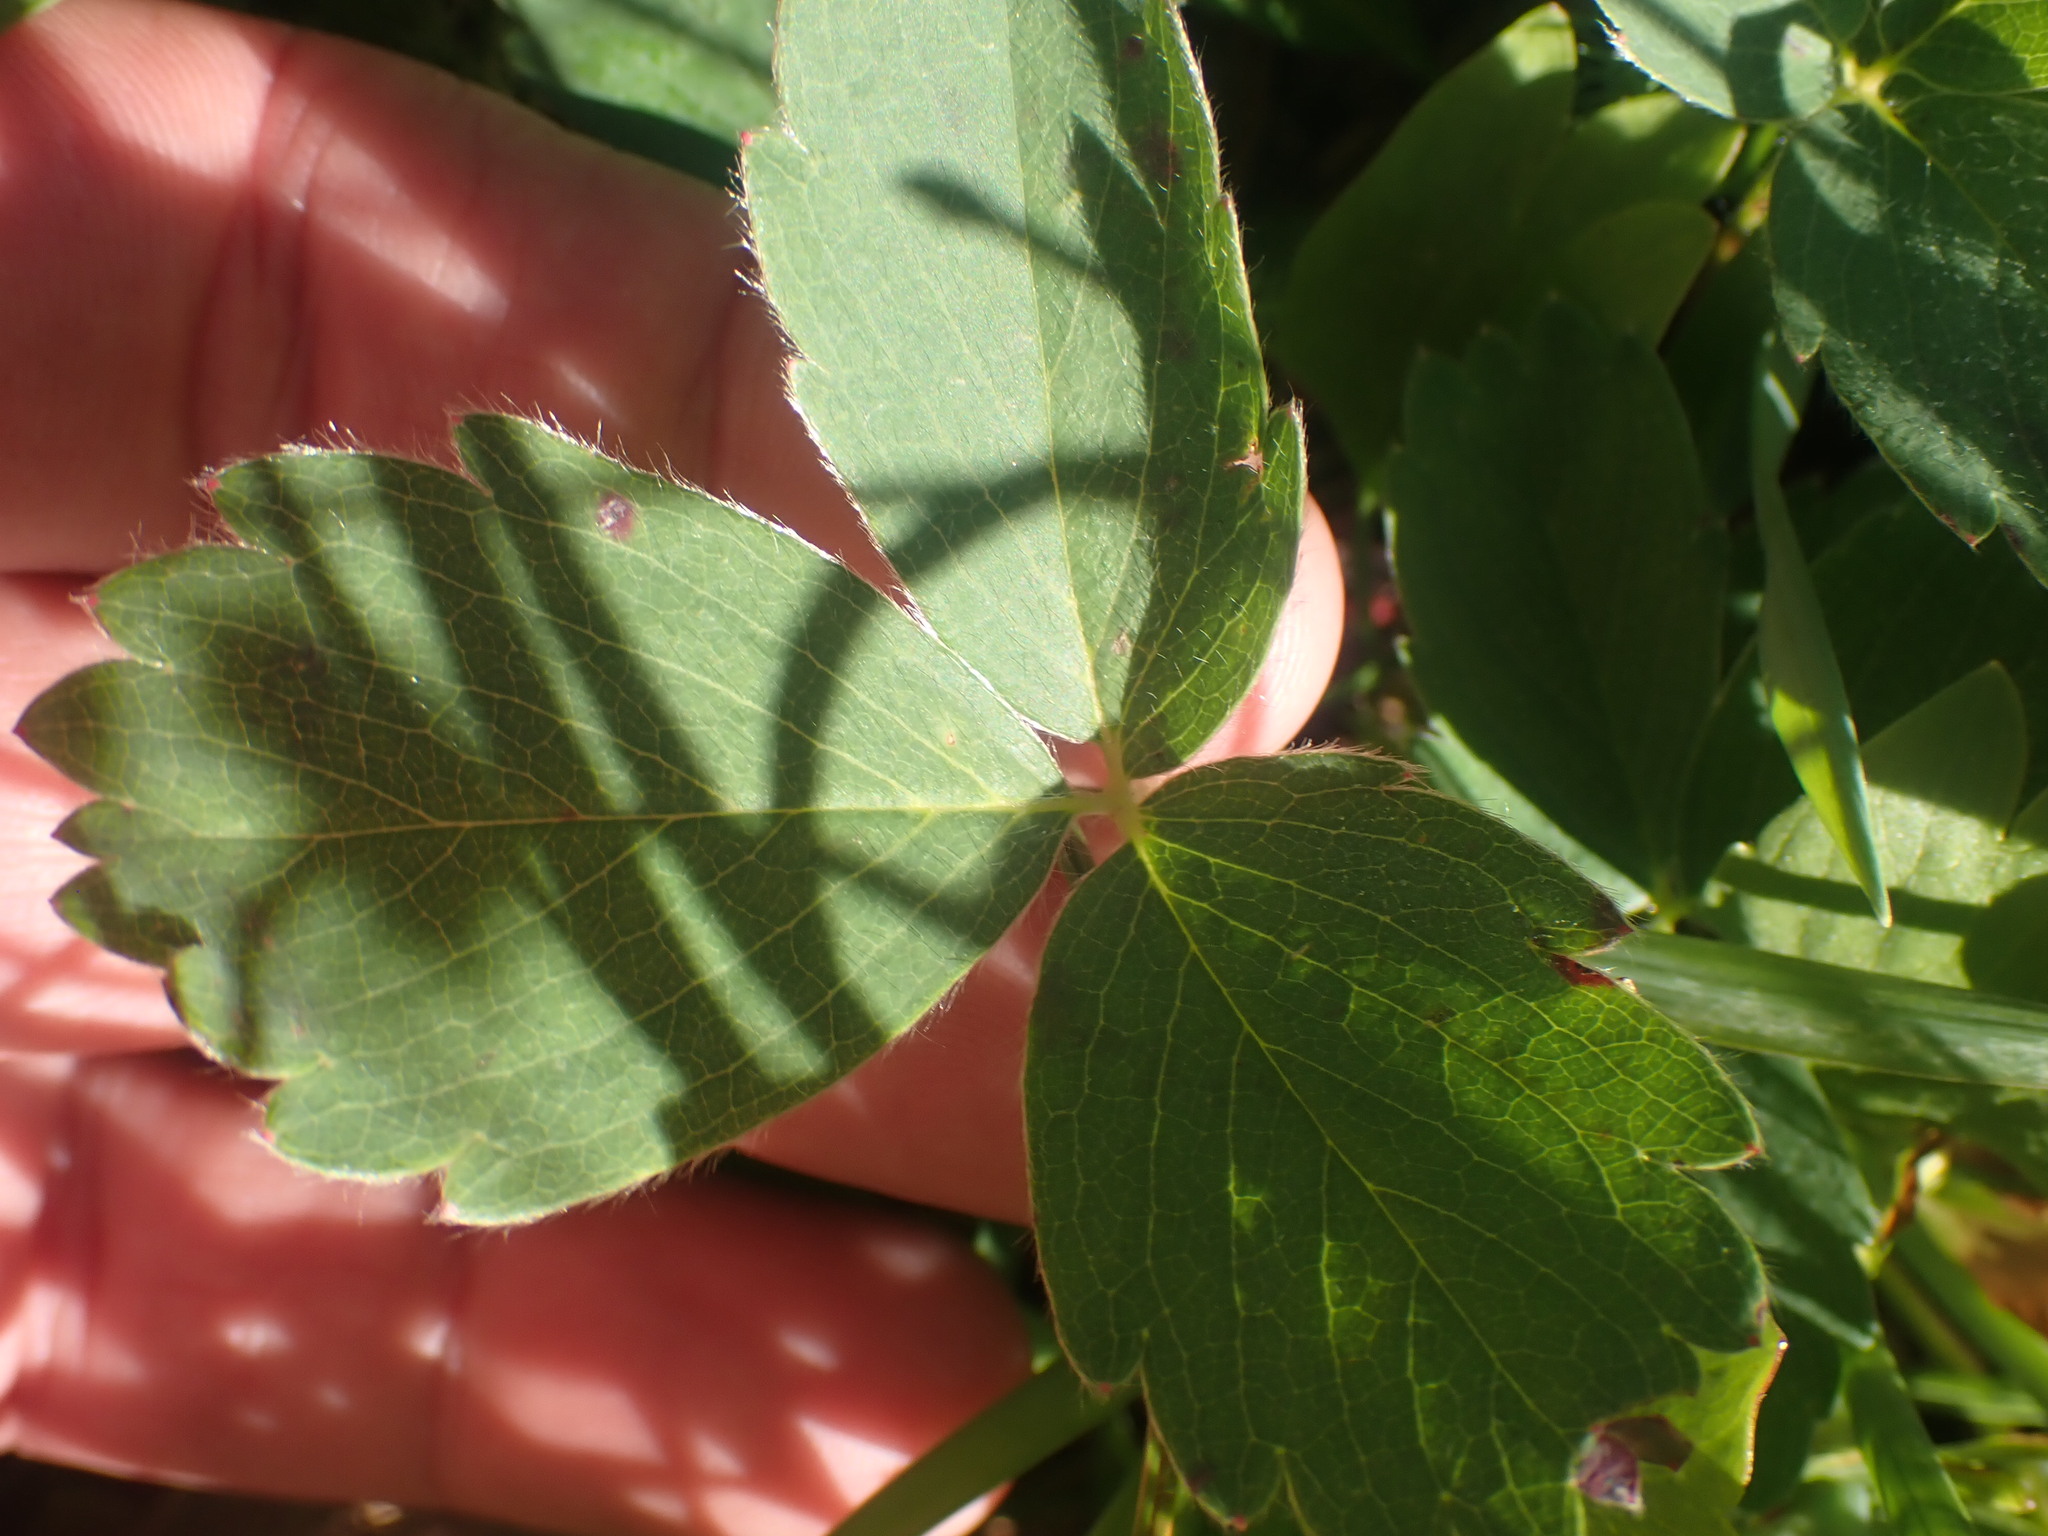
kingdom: Plantae
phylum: Tracheophyta
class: Magnoliopsida
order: Rosales
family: Rosaceae
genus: Fragaria
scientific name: Fragaria virginiana
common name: Thickleaved wild strawberry
